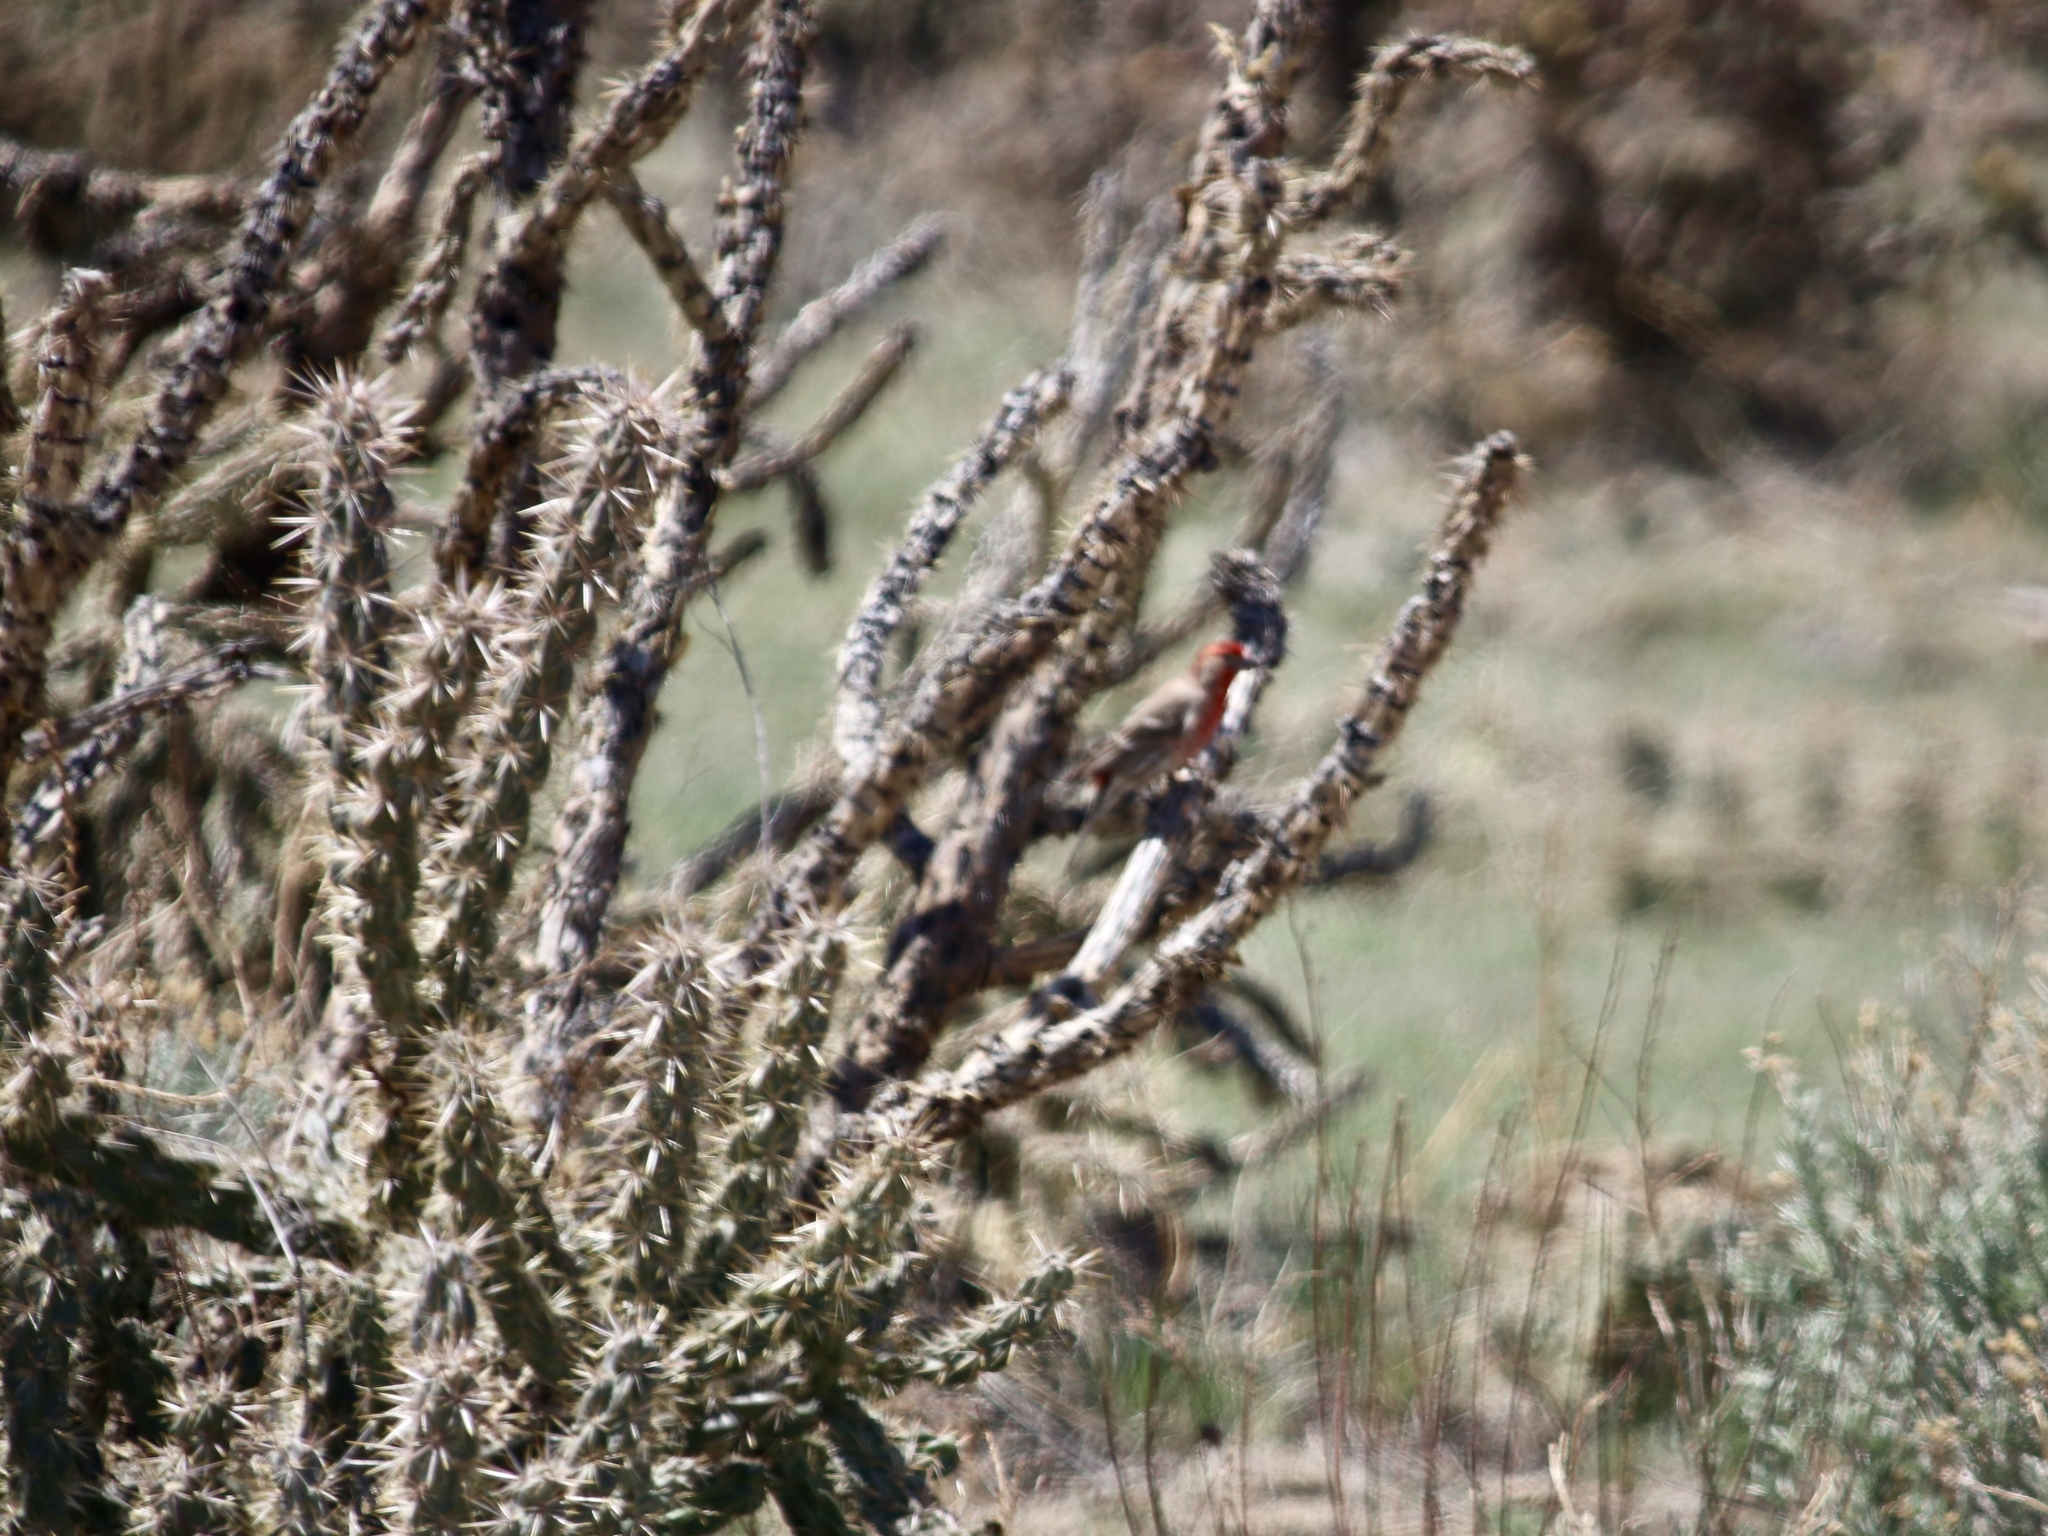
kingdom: Animalia
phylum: Chordata
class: Aves
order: Passeriformes
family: Fringillidae
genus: Haemorhous
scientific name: Haemorhous mexicanus
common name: House finch
